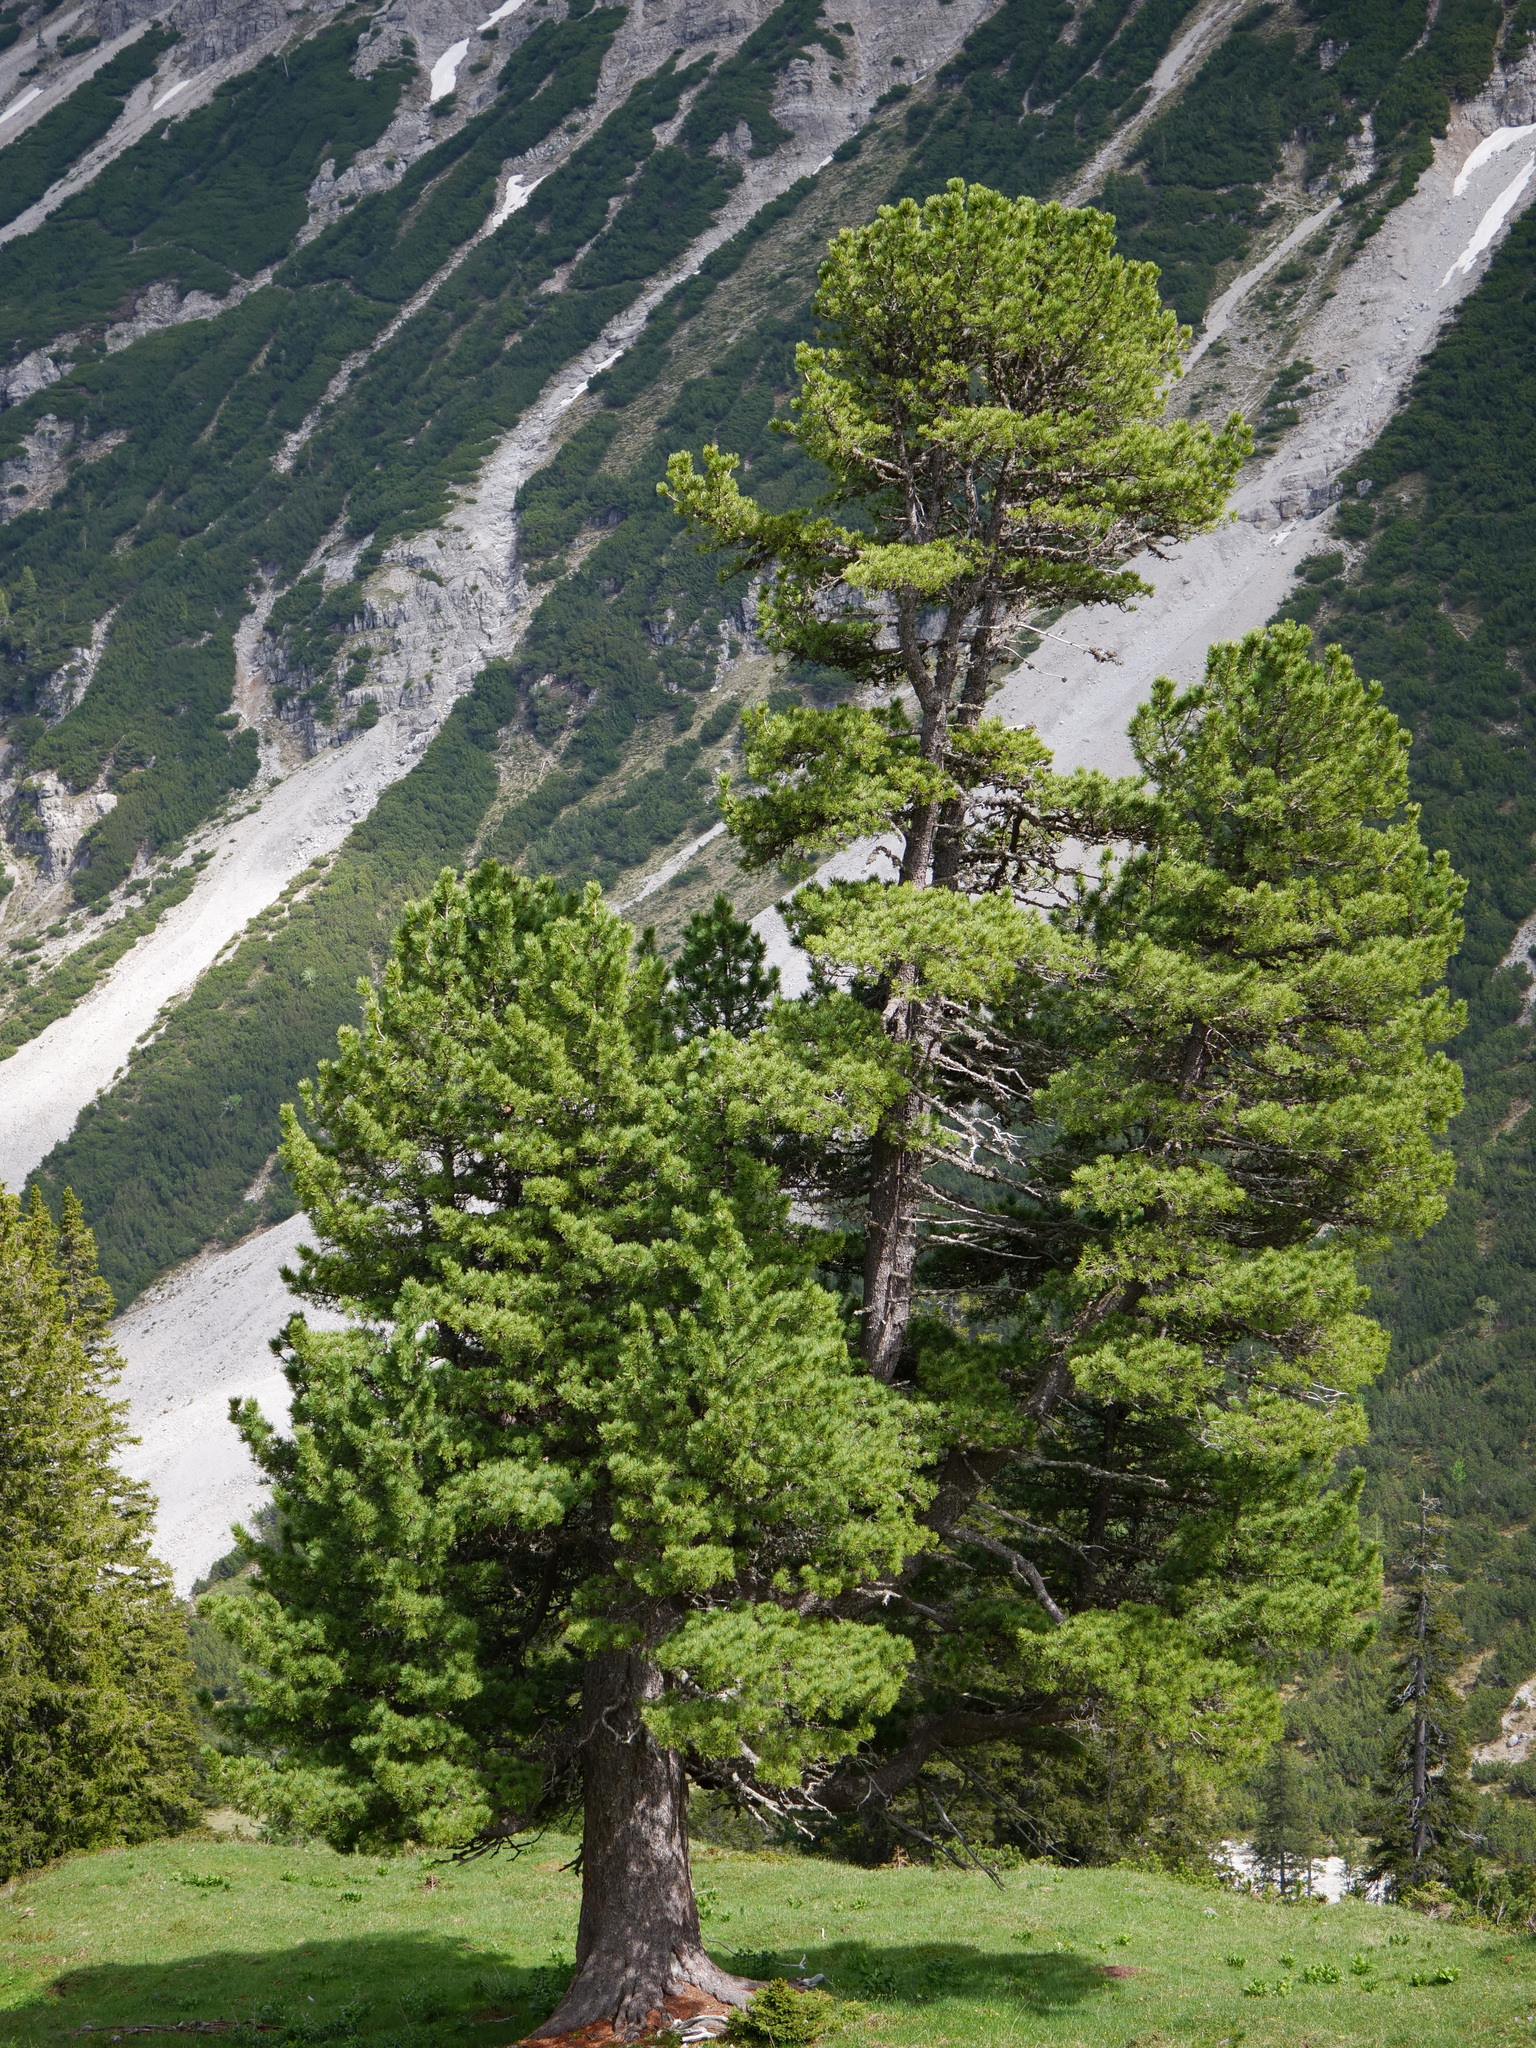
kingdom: Plantae
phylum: Tracheophyta
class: Pinopsida
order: Pinales
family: Pinaceae
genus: Pinus
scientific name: Pinus cembra
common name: Arolla pine
